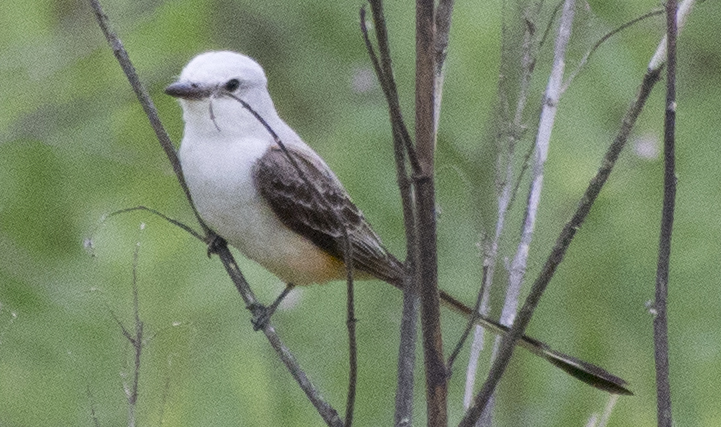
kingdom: Animalia
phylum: Chordata
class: Aves
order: Passeriformes
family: Tyrannidae
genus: Tyrannus
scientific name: Tyrannus forficatus
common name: Scissor-tailed flycatcher
